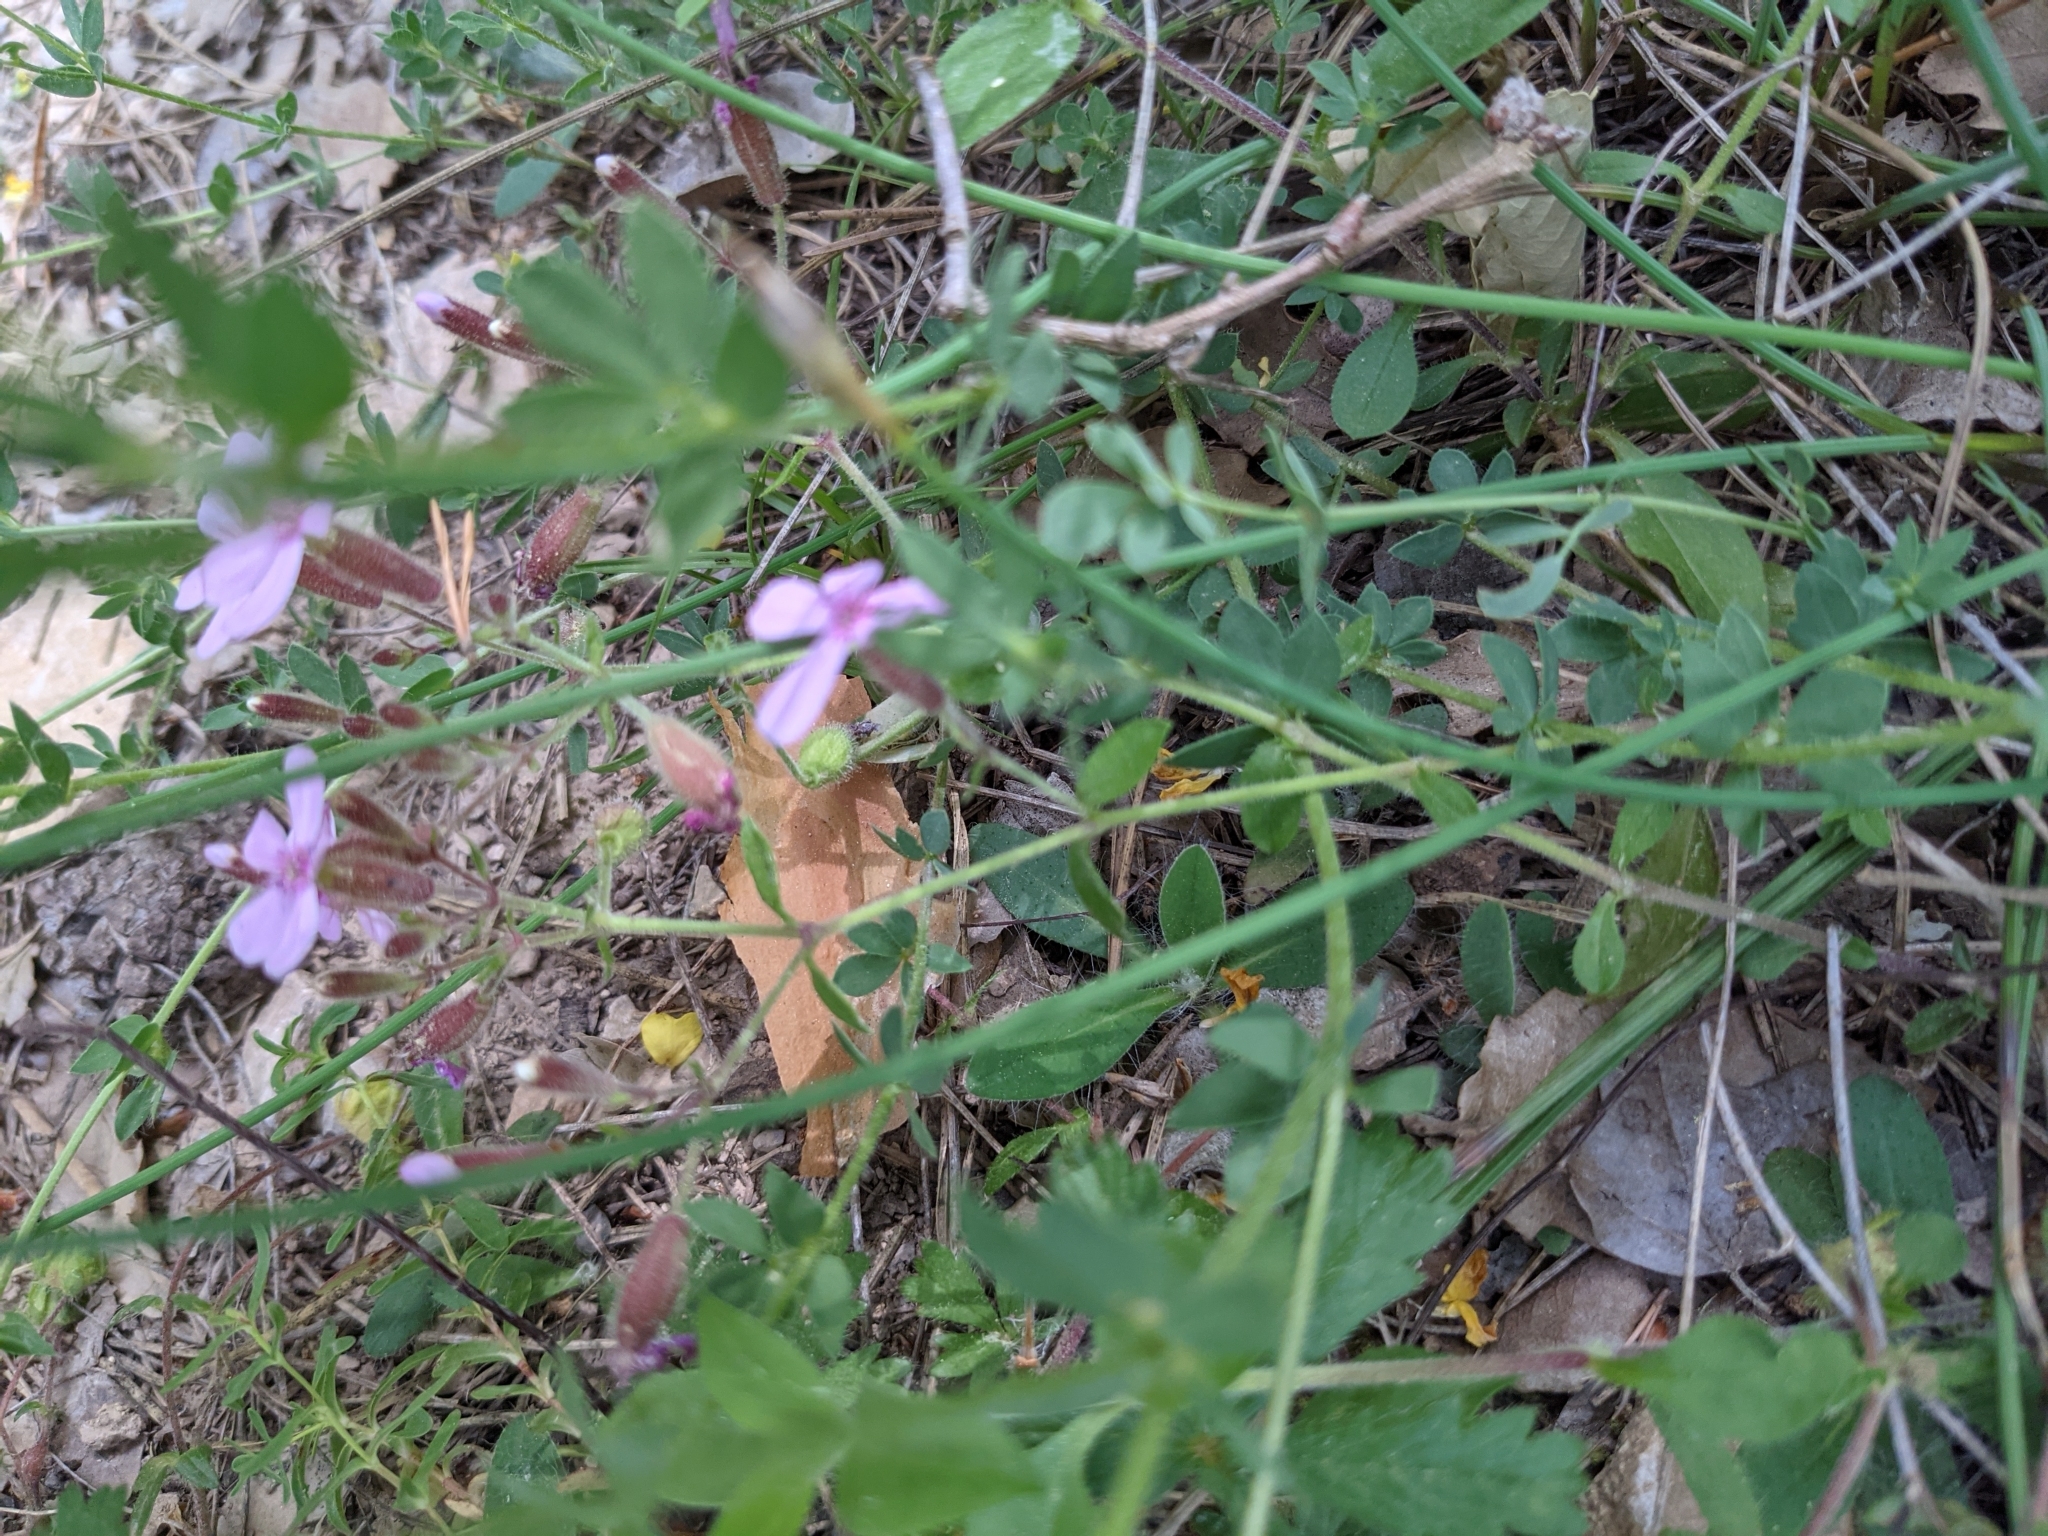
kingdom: Plantae
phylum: Tracheophyta
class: Magnoliopsida
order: Caryophyllales
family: Caryophyllaceae
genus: Saponaria
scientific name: Saponaria ocymoides
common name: Rock soapwort
